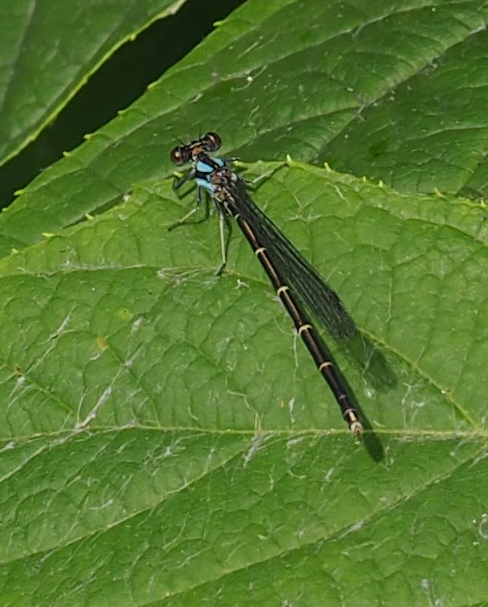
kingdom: Animalia
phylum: Arthropoda
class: Insecta
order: Odonata
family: Coenagrionidae
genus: Argia
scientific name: Argia tibialis
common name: Blue-tipped dancer
